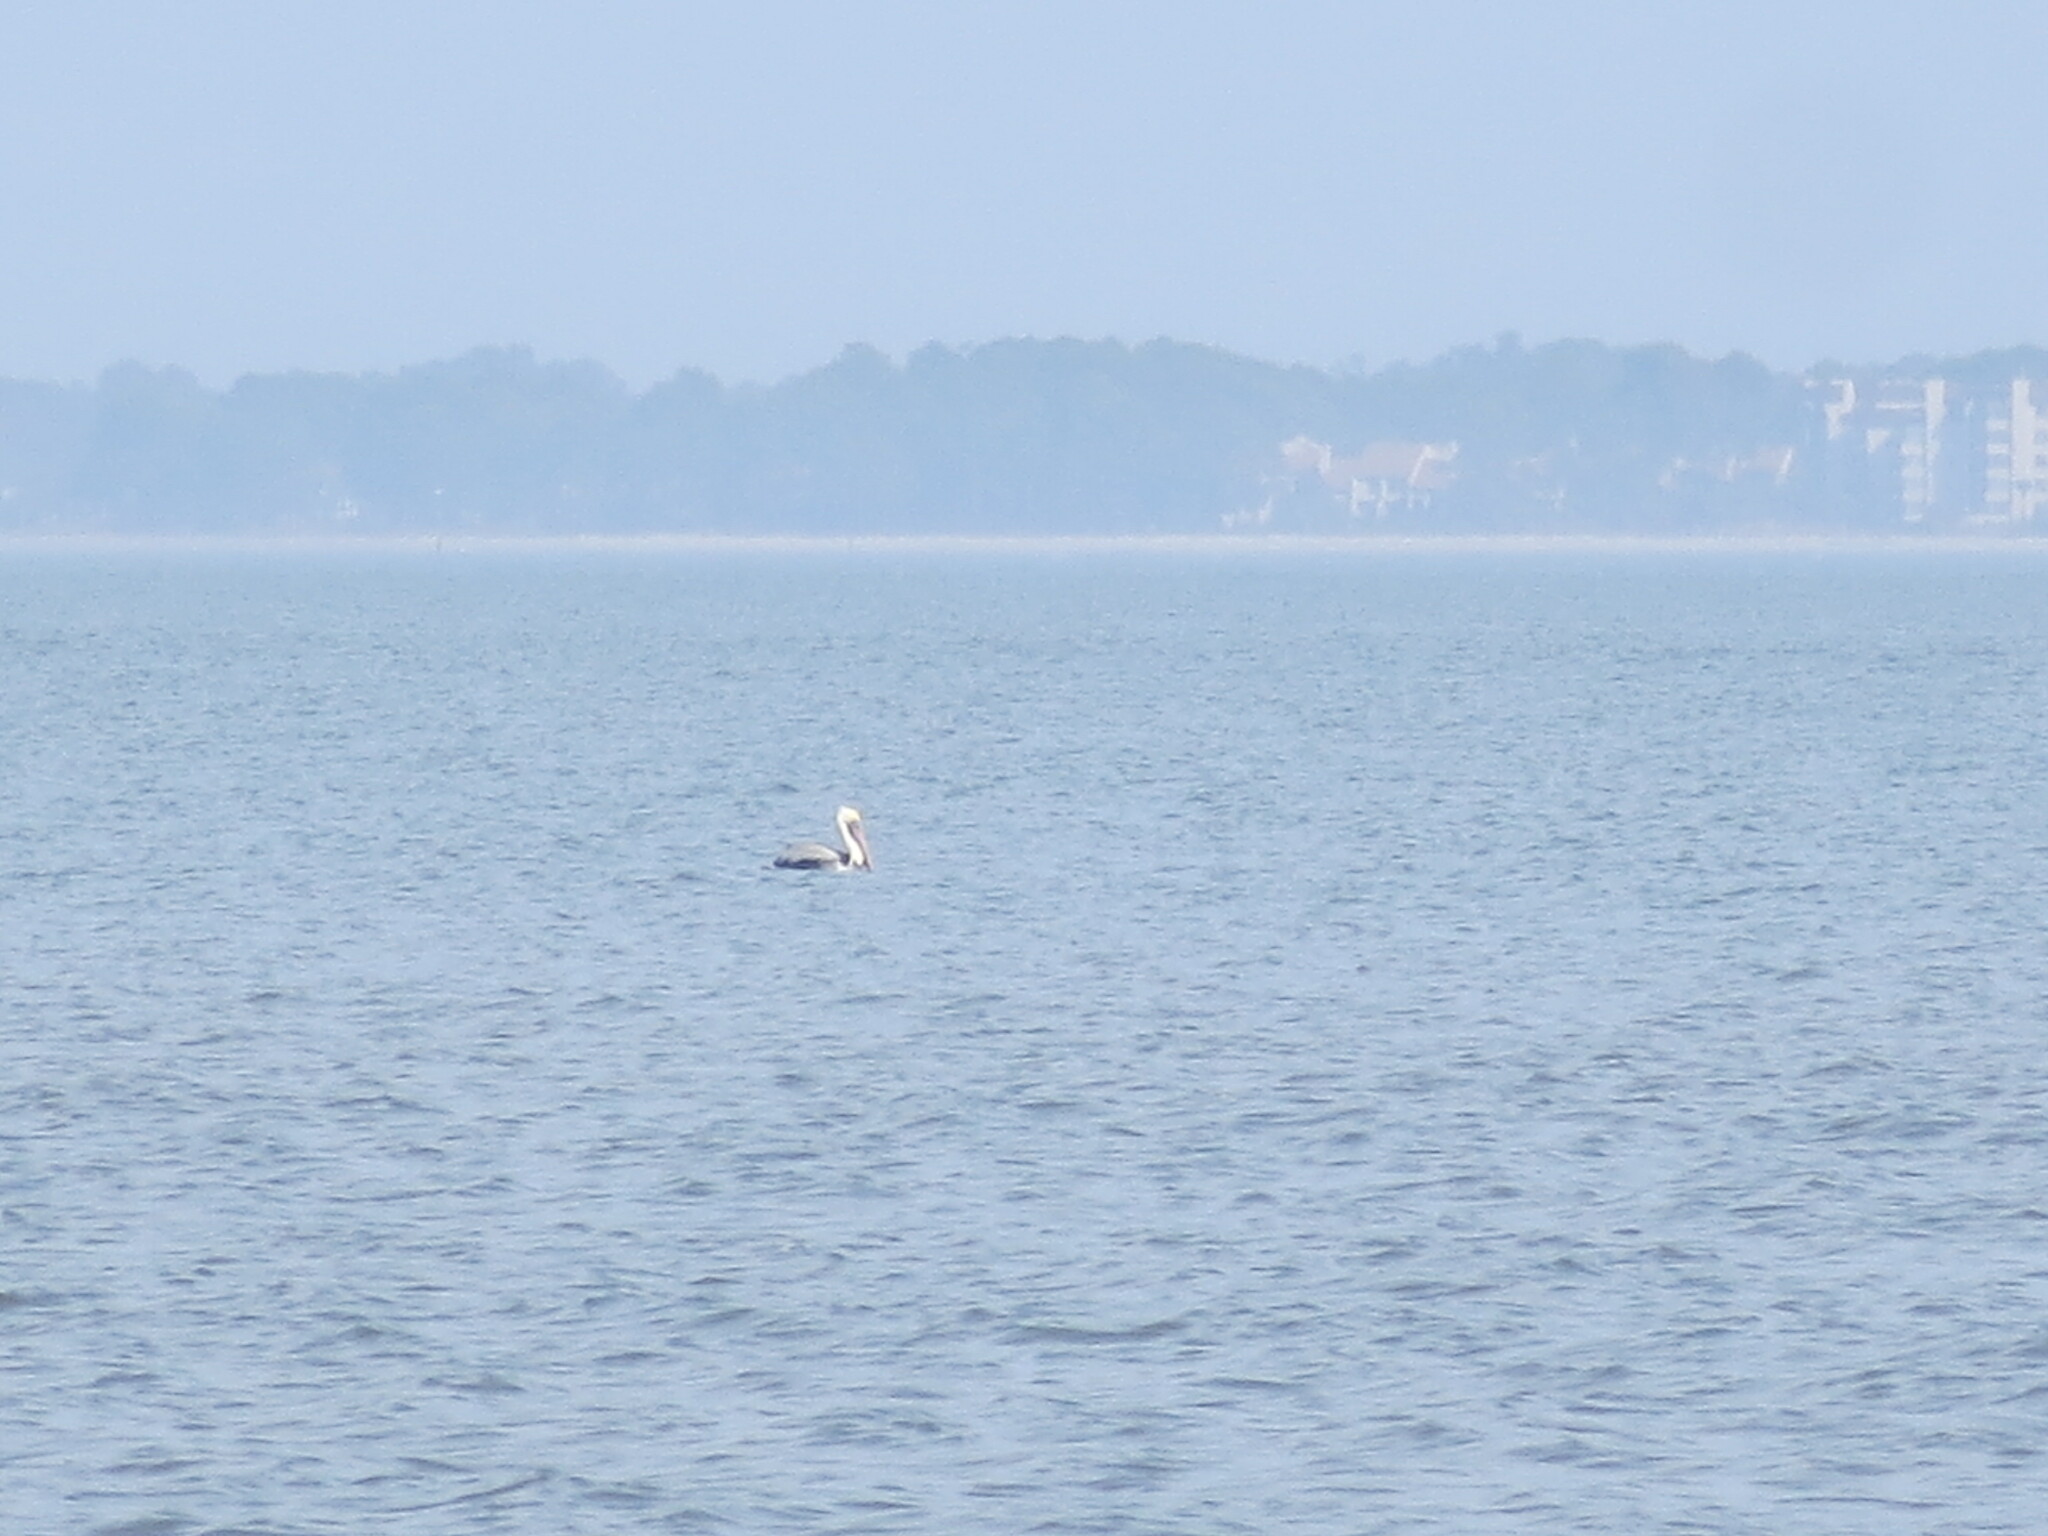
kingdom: Animalia
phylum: Chordata
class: Aves
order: Pelecaniformes
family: Pelecanidae
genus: Pelecanus
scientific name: Pelecanus occidentalis
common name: Brown pelican
